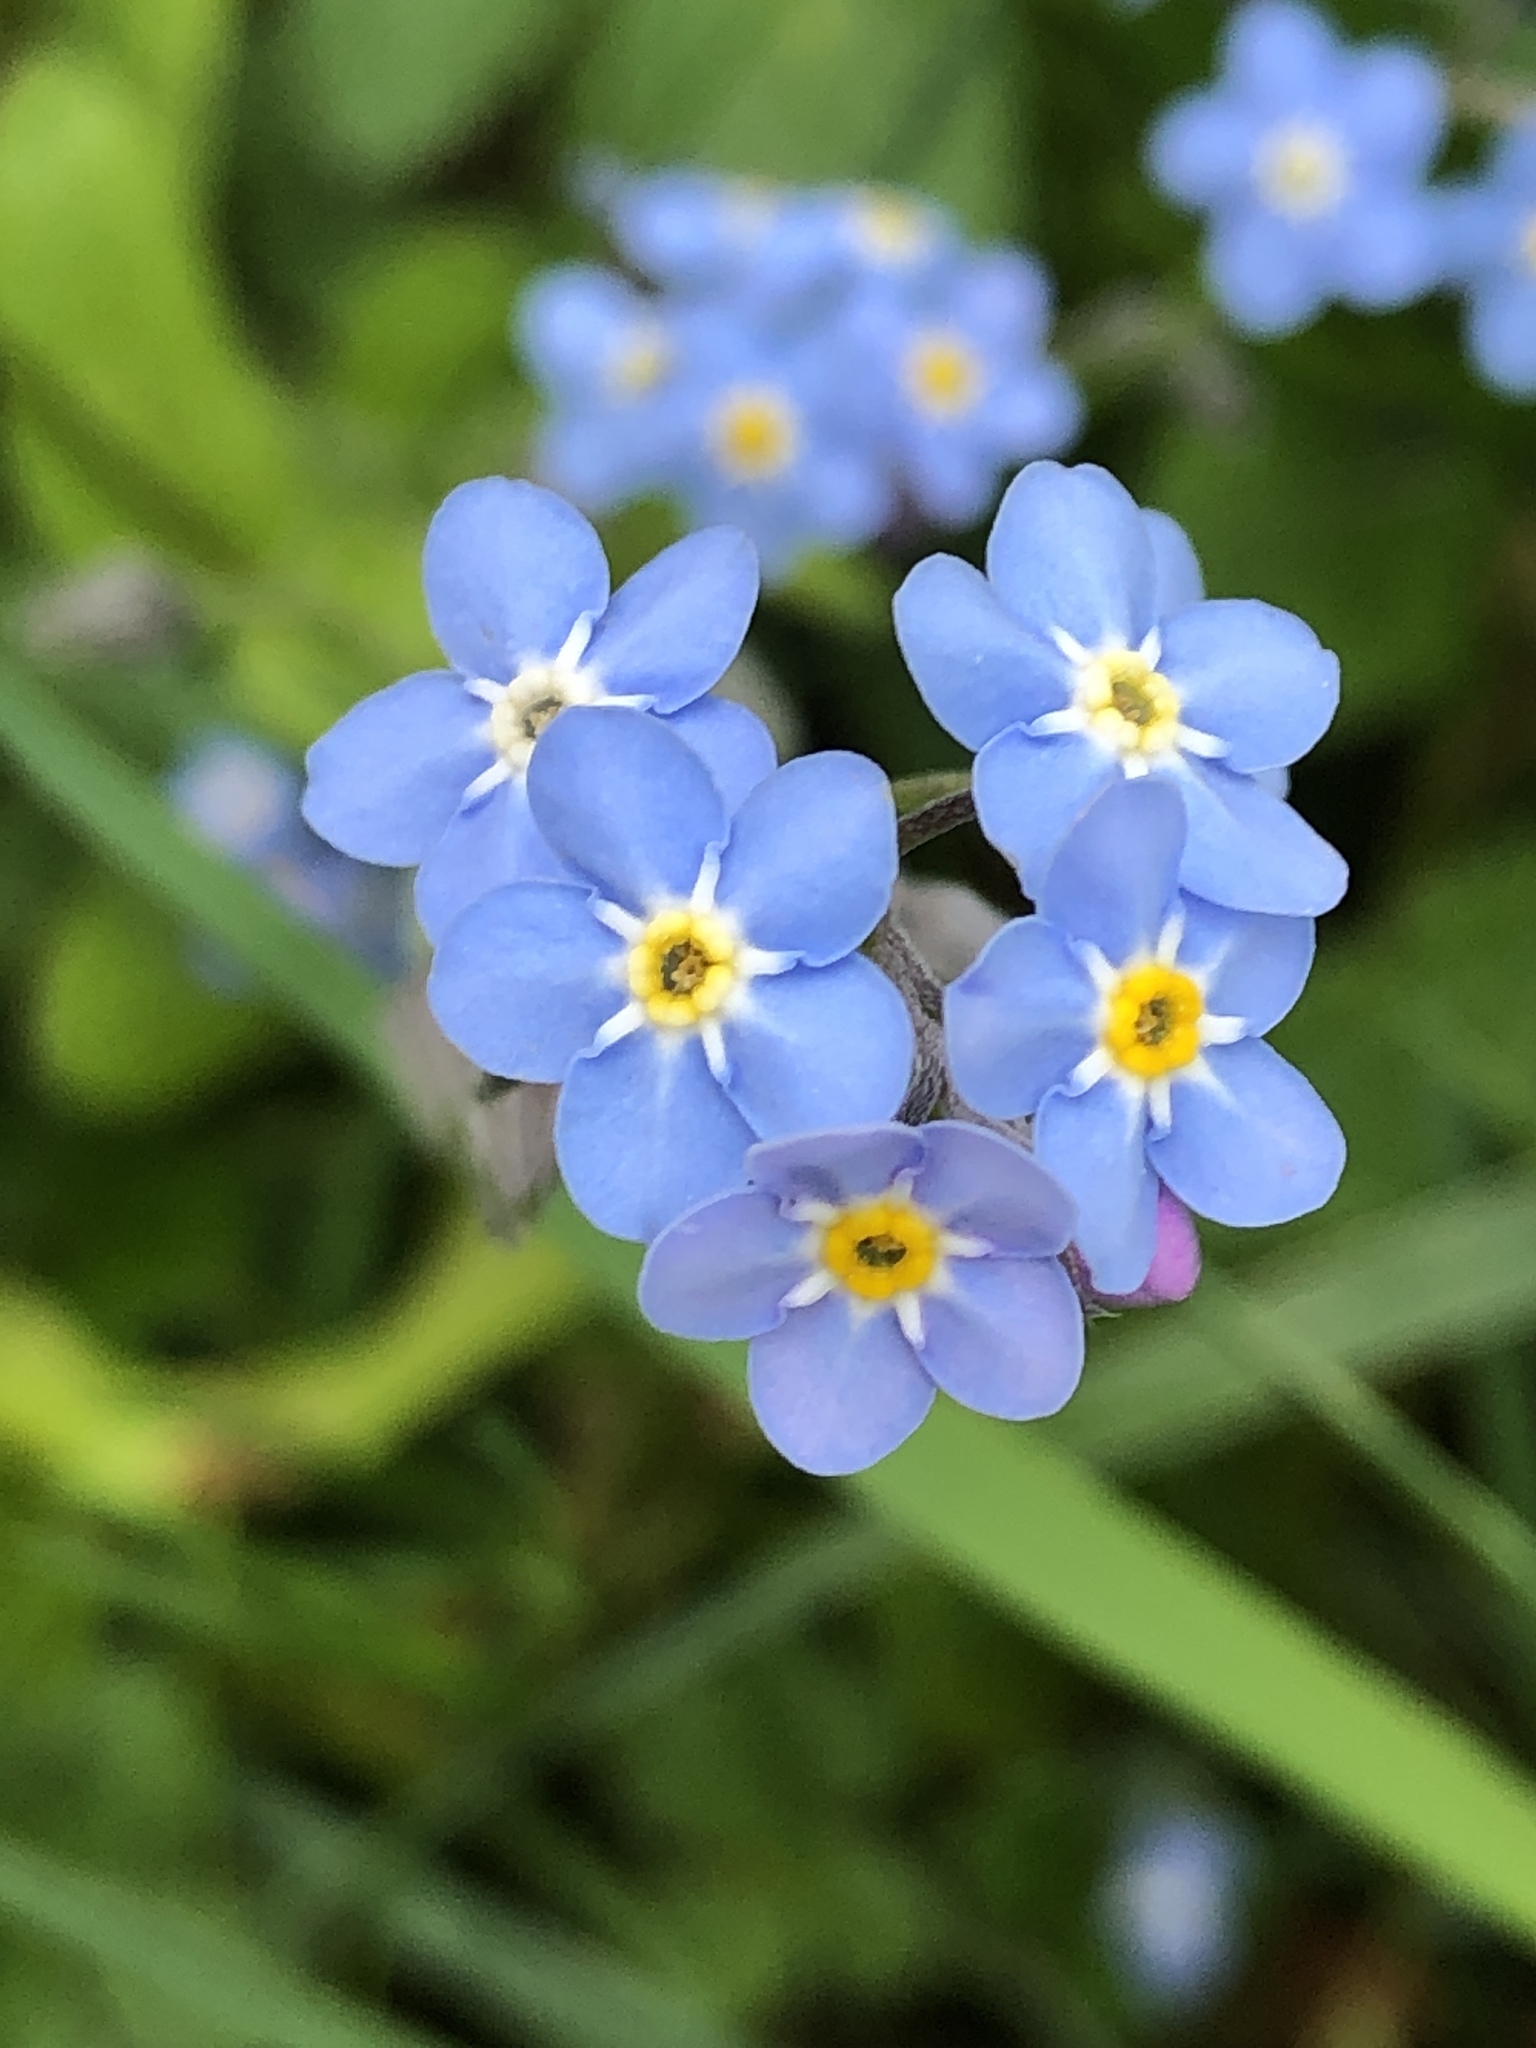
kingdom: Plantae
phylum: Tracheophyta
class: Magnoliopsida
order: Boraginales
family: Boraginaceae
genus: Myosotis
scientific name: Myosotis sylvatica
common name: Wood forget-me-not
